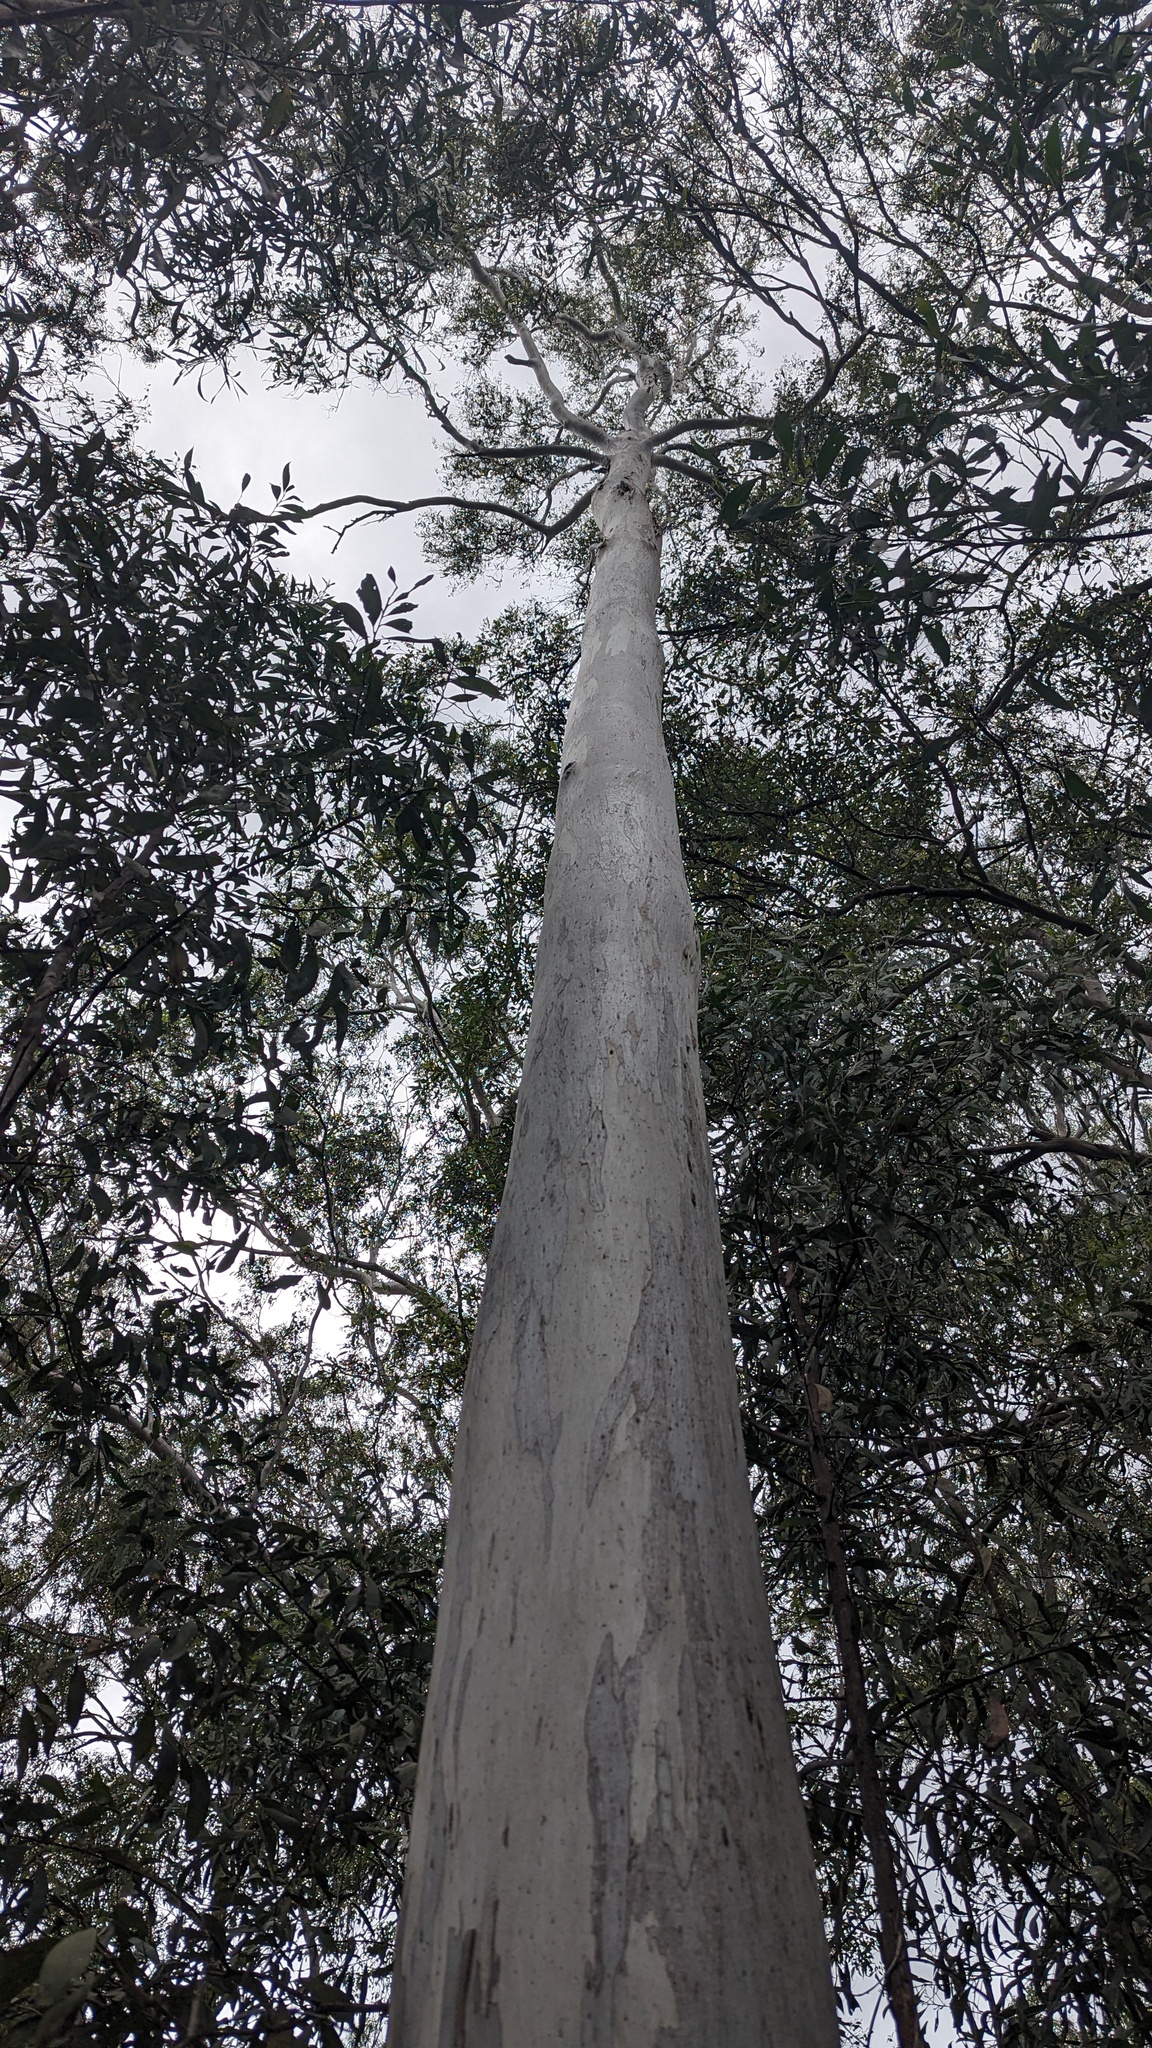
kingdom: Plantae
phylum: Tracheophyta
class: Magnoliopsida
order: Myrtales
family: Myrtaceae
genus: Eucalyptus
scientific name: Eucalyptus tereticornis
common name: Forest redgum
